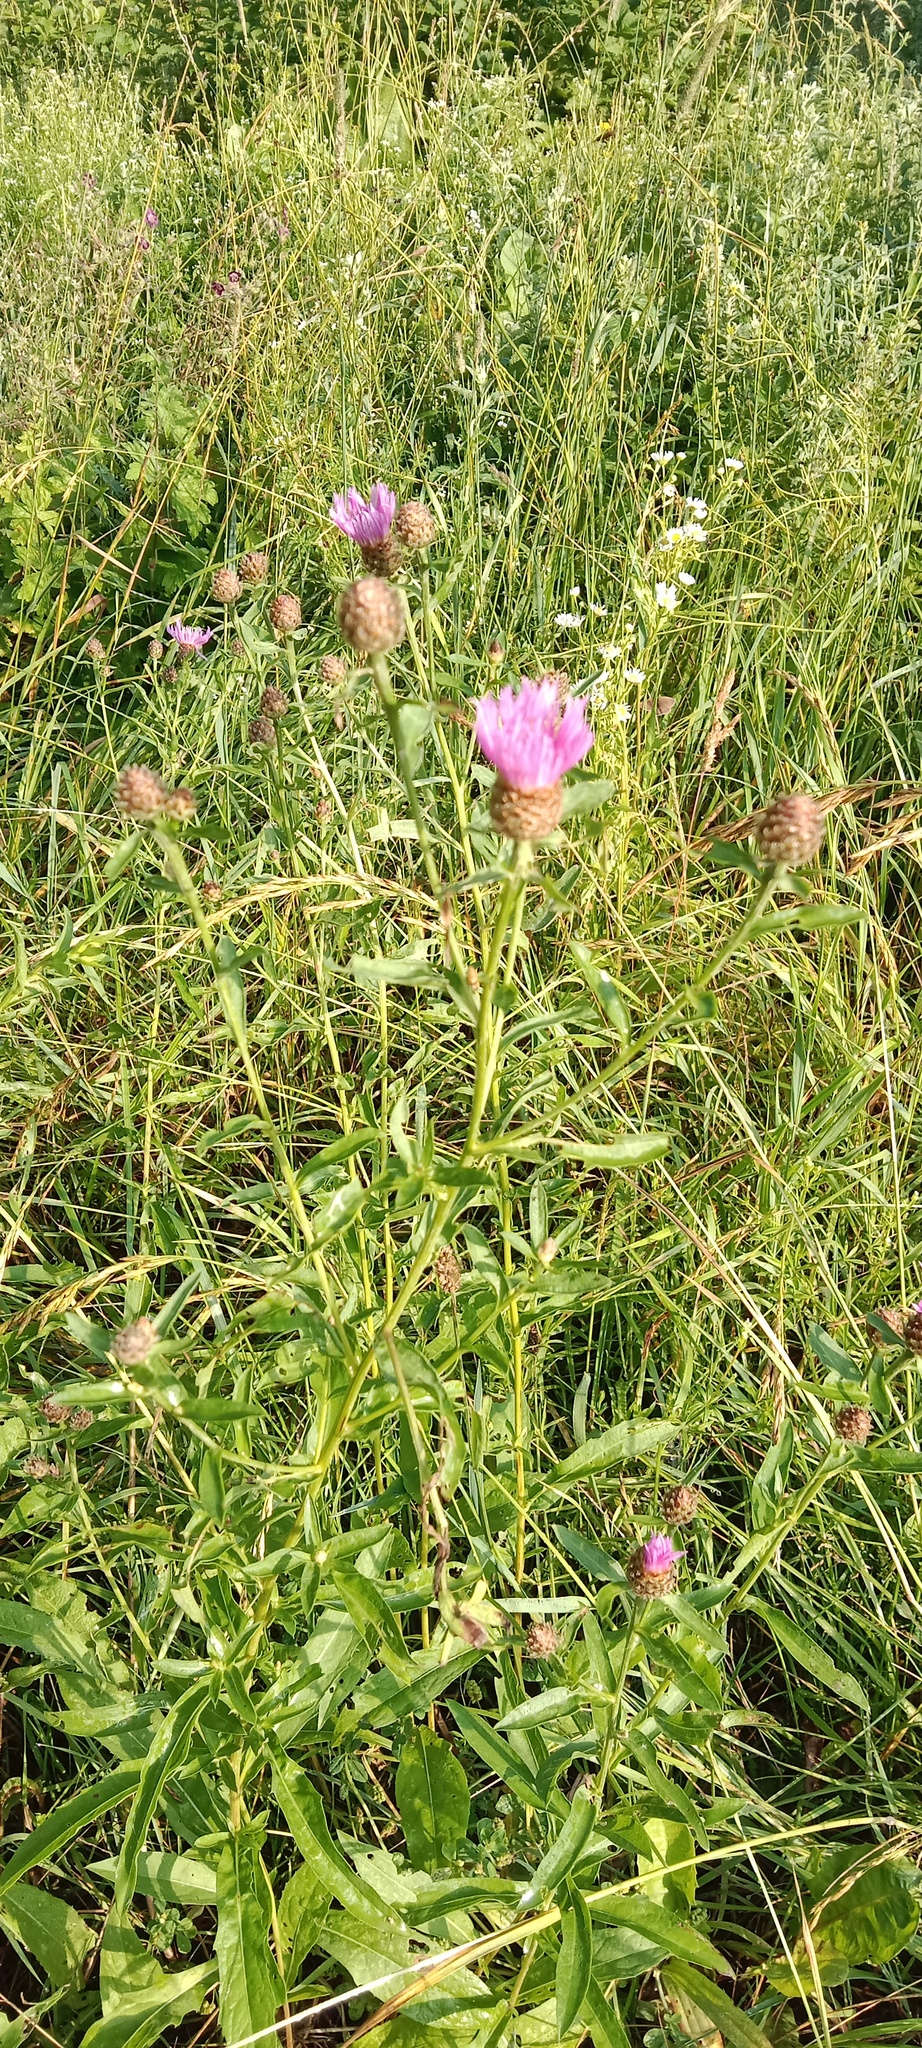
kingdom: Plantae
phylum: Tracheophyta
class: Magnoliopsida
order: Asterales
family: Asteraceae
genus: Centaurea
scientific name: Centaurea jacea
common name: Brown knapweed
